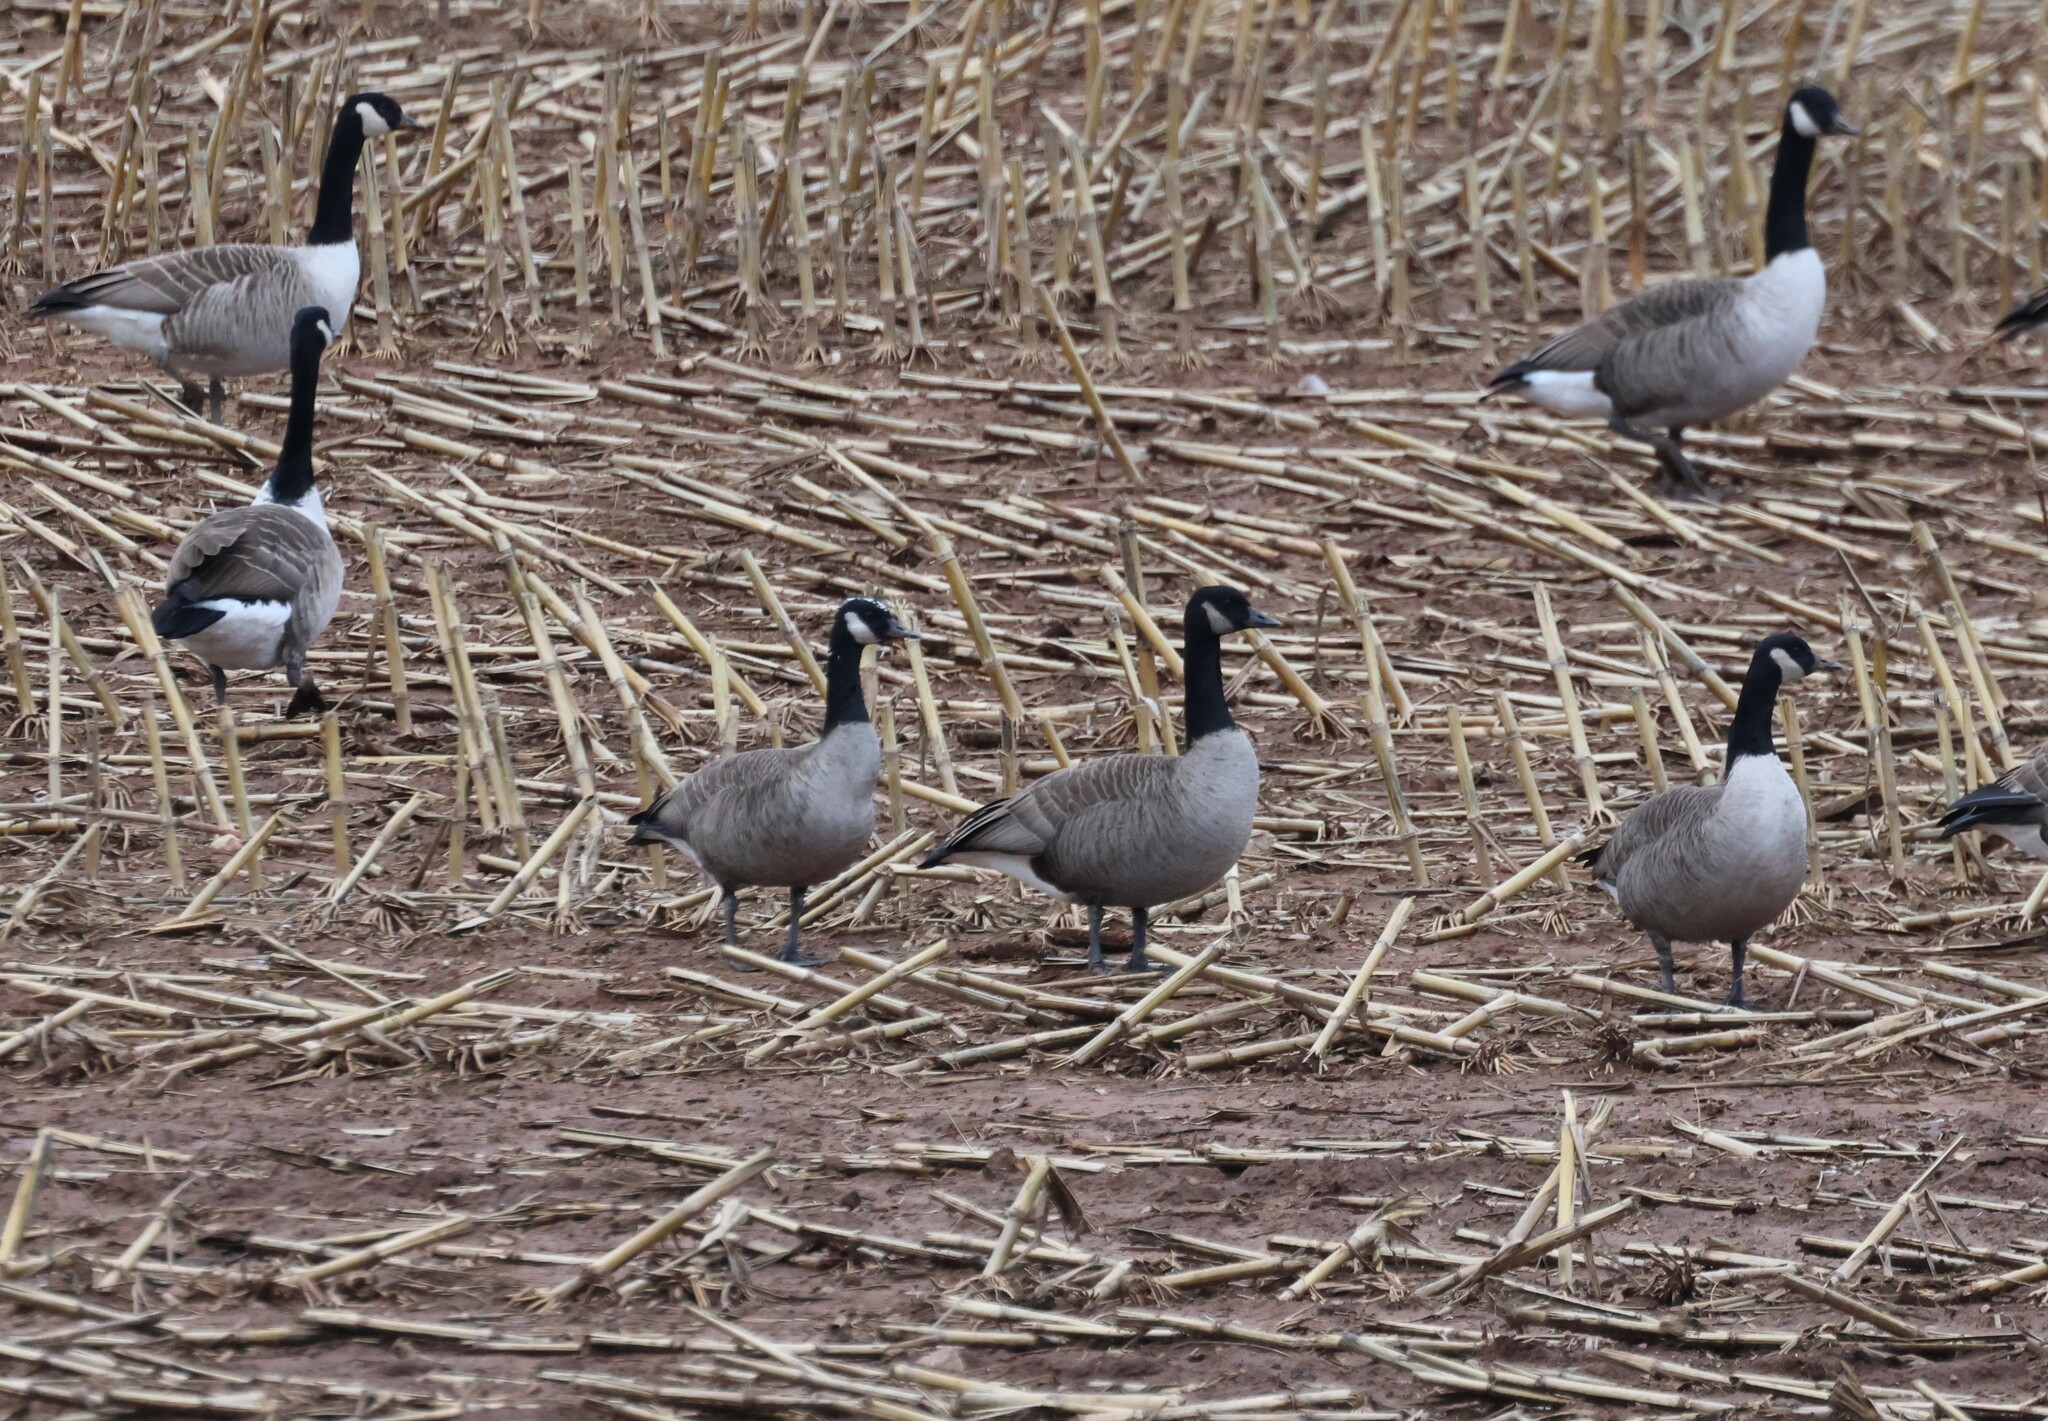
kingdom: Animalia
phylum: Chordata
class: Aves
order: Anseriformes
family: Anatidae
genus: Branta
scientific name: Branta canadensis
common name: Canada goose
